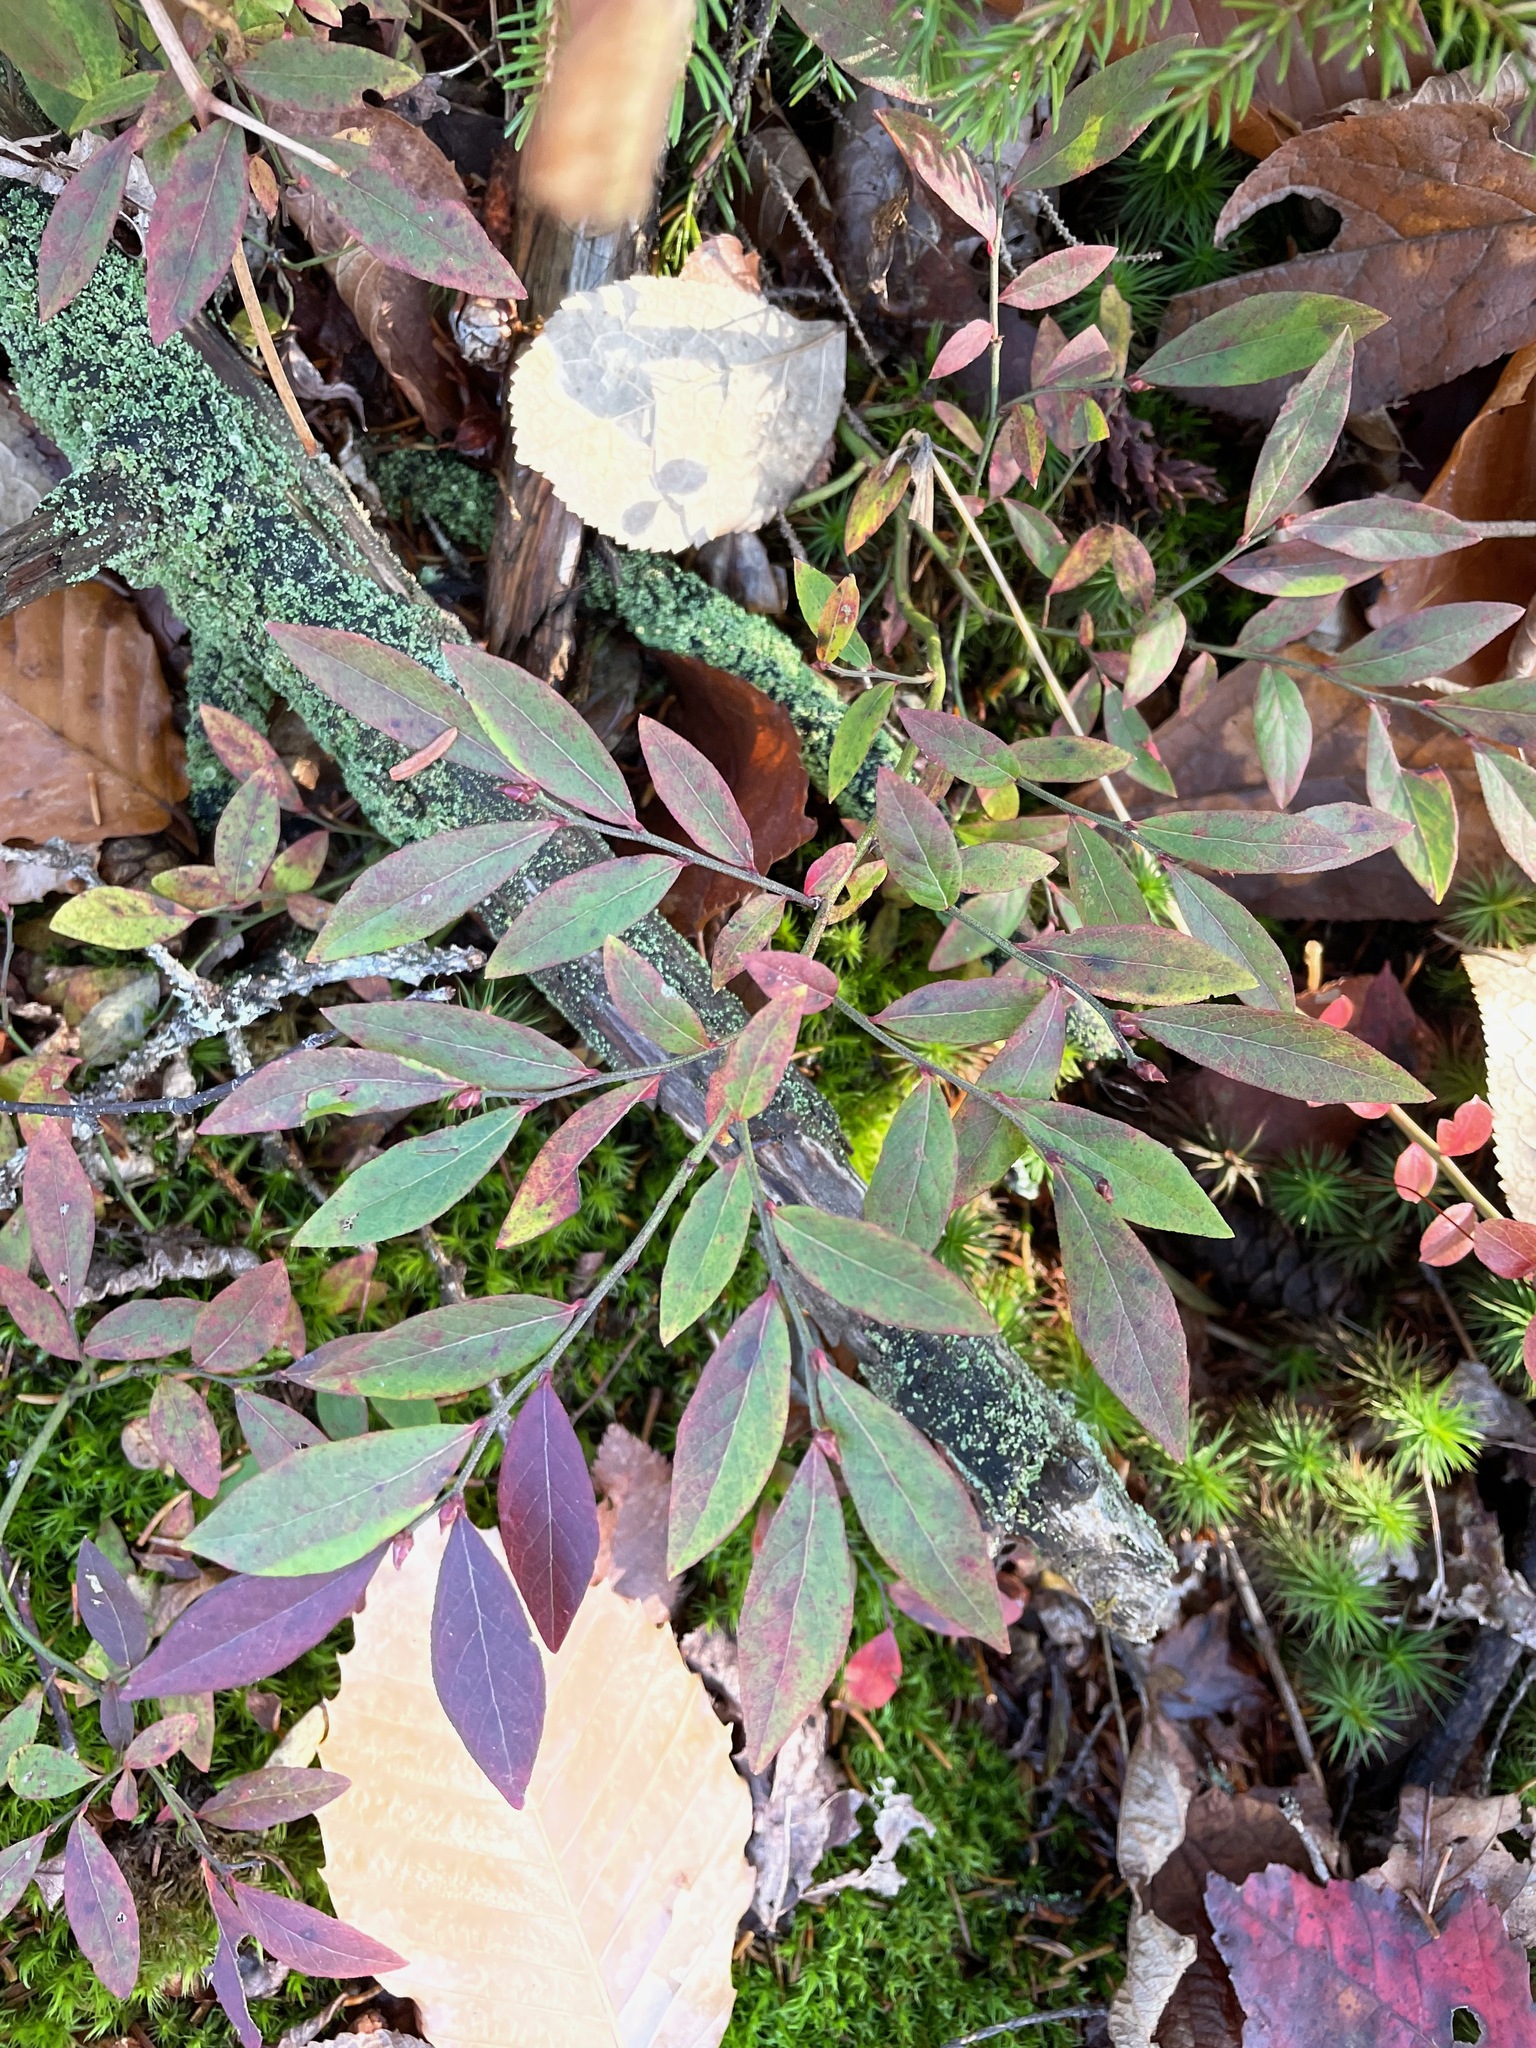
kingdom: Plantae
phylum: Tracheophyta
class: Magnoliopsida
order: Ericales
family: Ericaceae
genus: Vaccinium
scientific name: Vaccinium angustifolium
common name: Early lowbush blueberry
